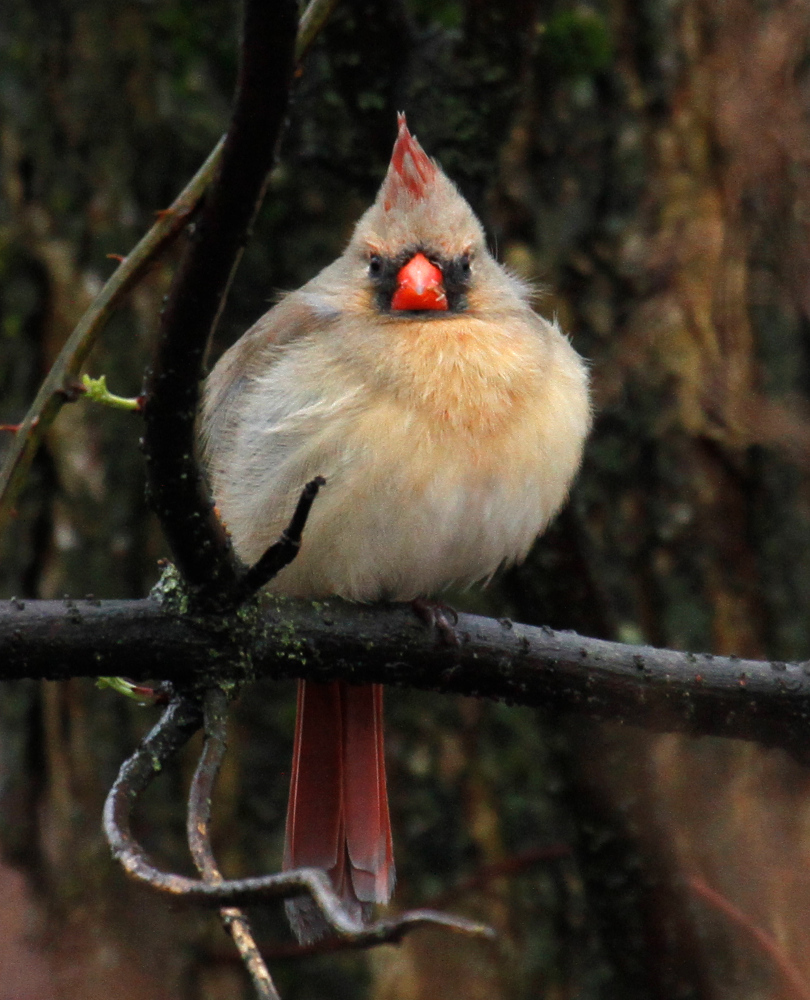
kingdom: Animalia
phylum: Chordata
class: Aves
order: Passeriformes
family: Cardinalidae
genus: Cardinalis
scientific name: Cardinalis cardinalis
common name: Northern cardinal
